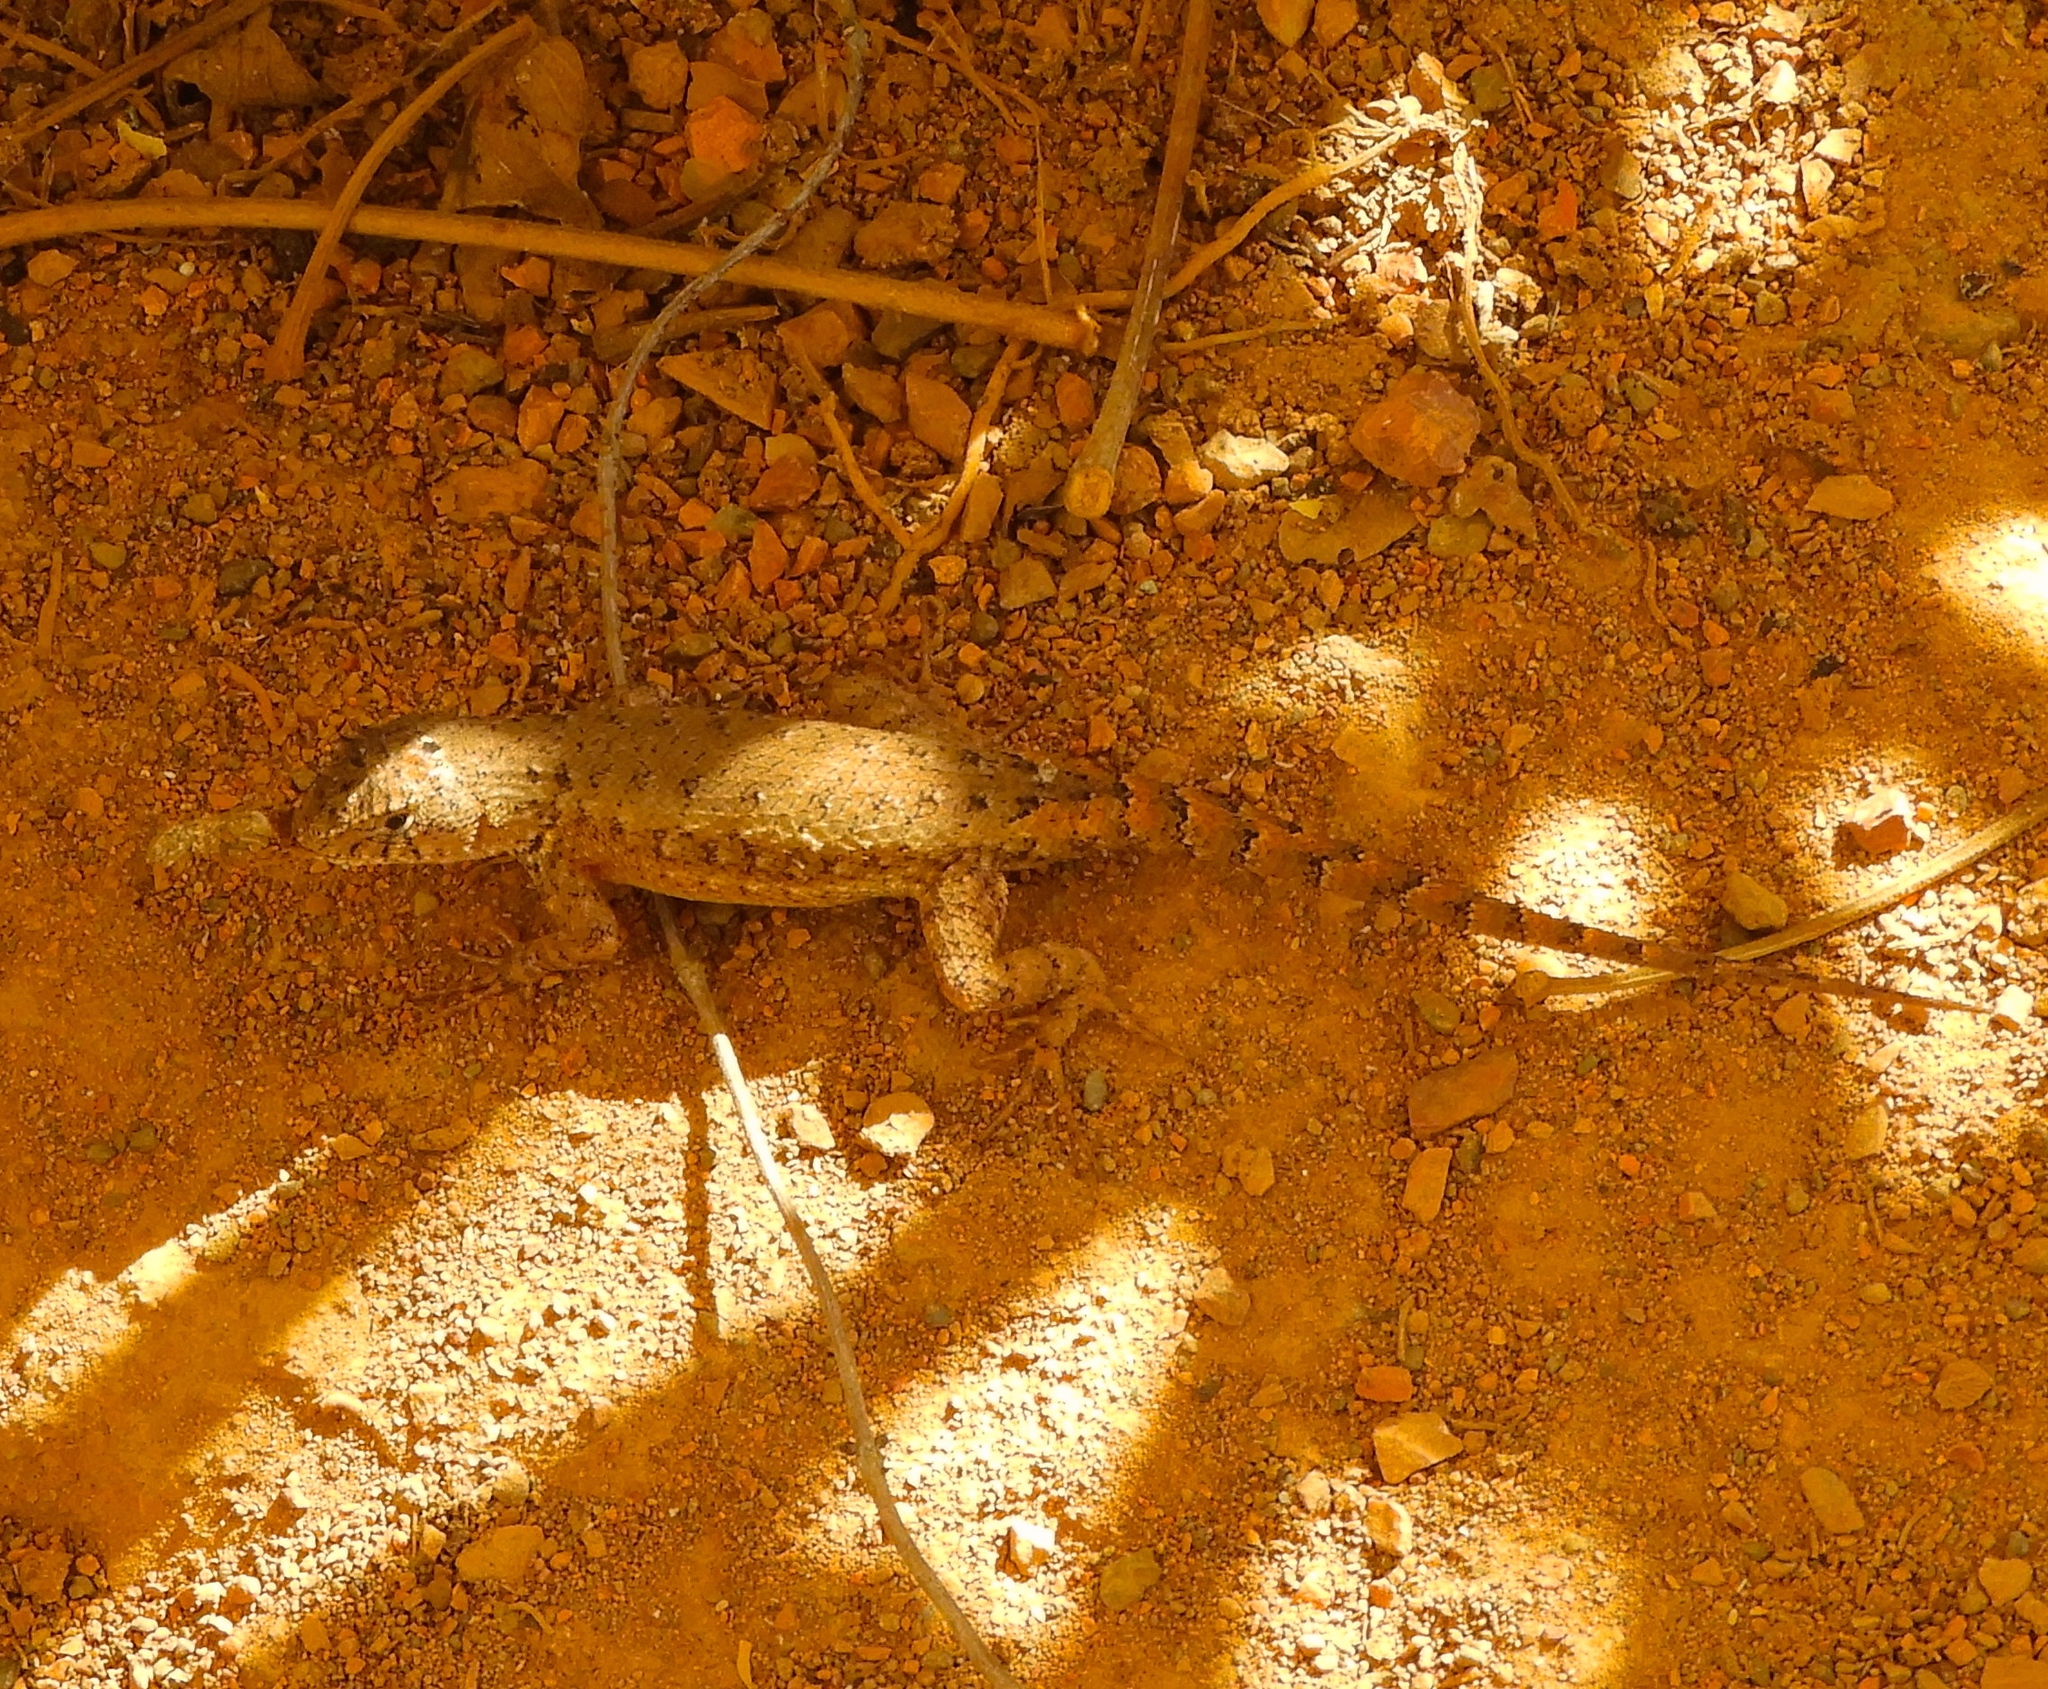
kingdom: Animalia
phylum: Chordata
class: Squamata
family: Phrynosomatidae
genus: Sceloporus
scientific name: Sceloporus nelsoni
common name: Nelson's spiny lizard
